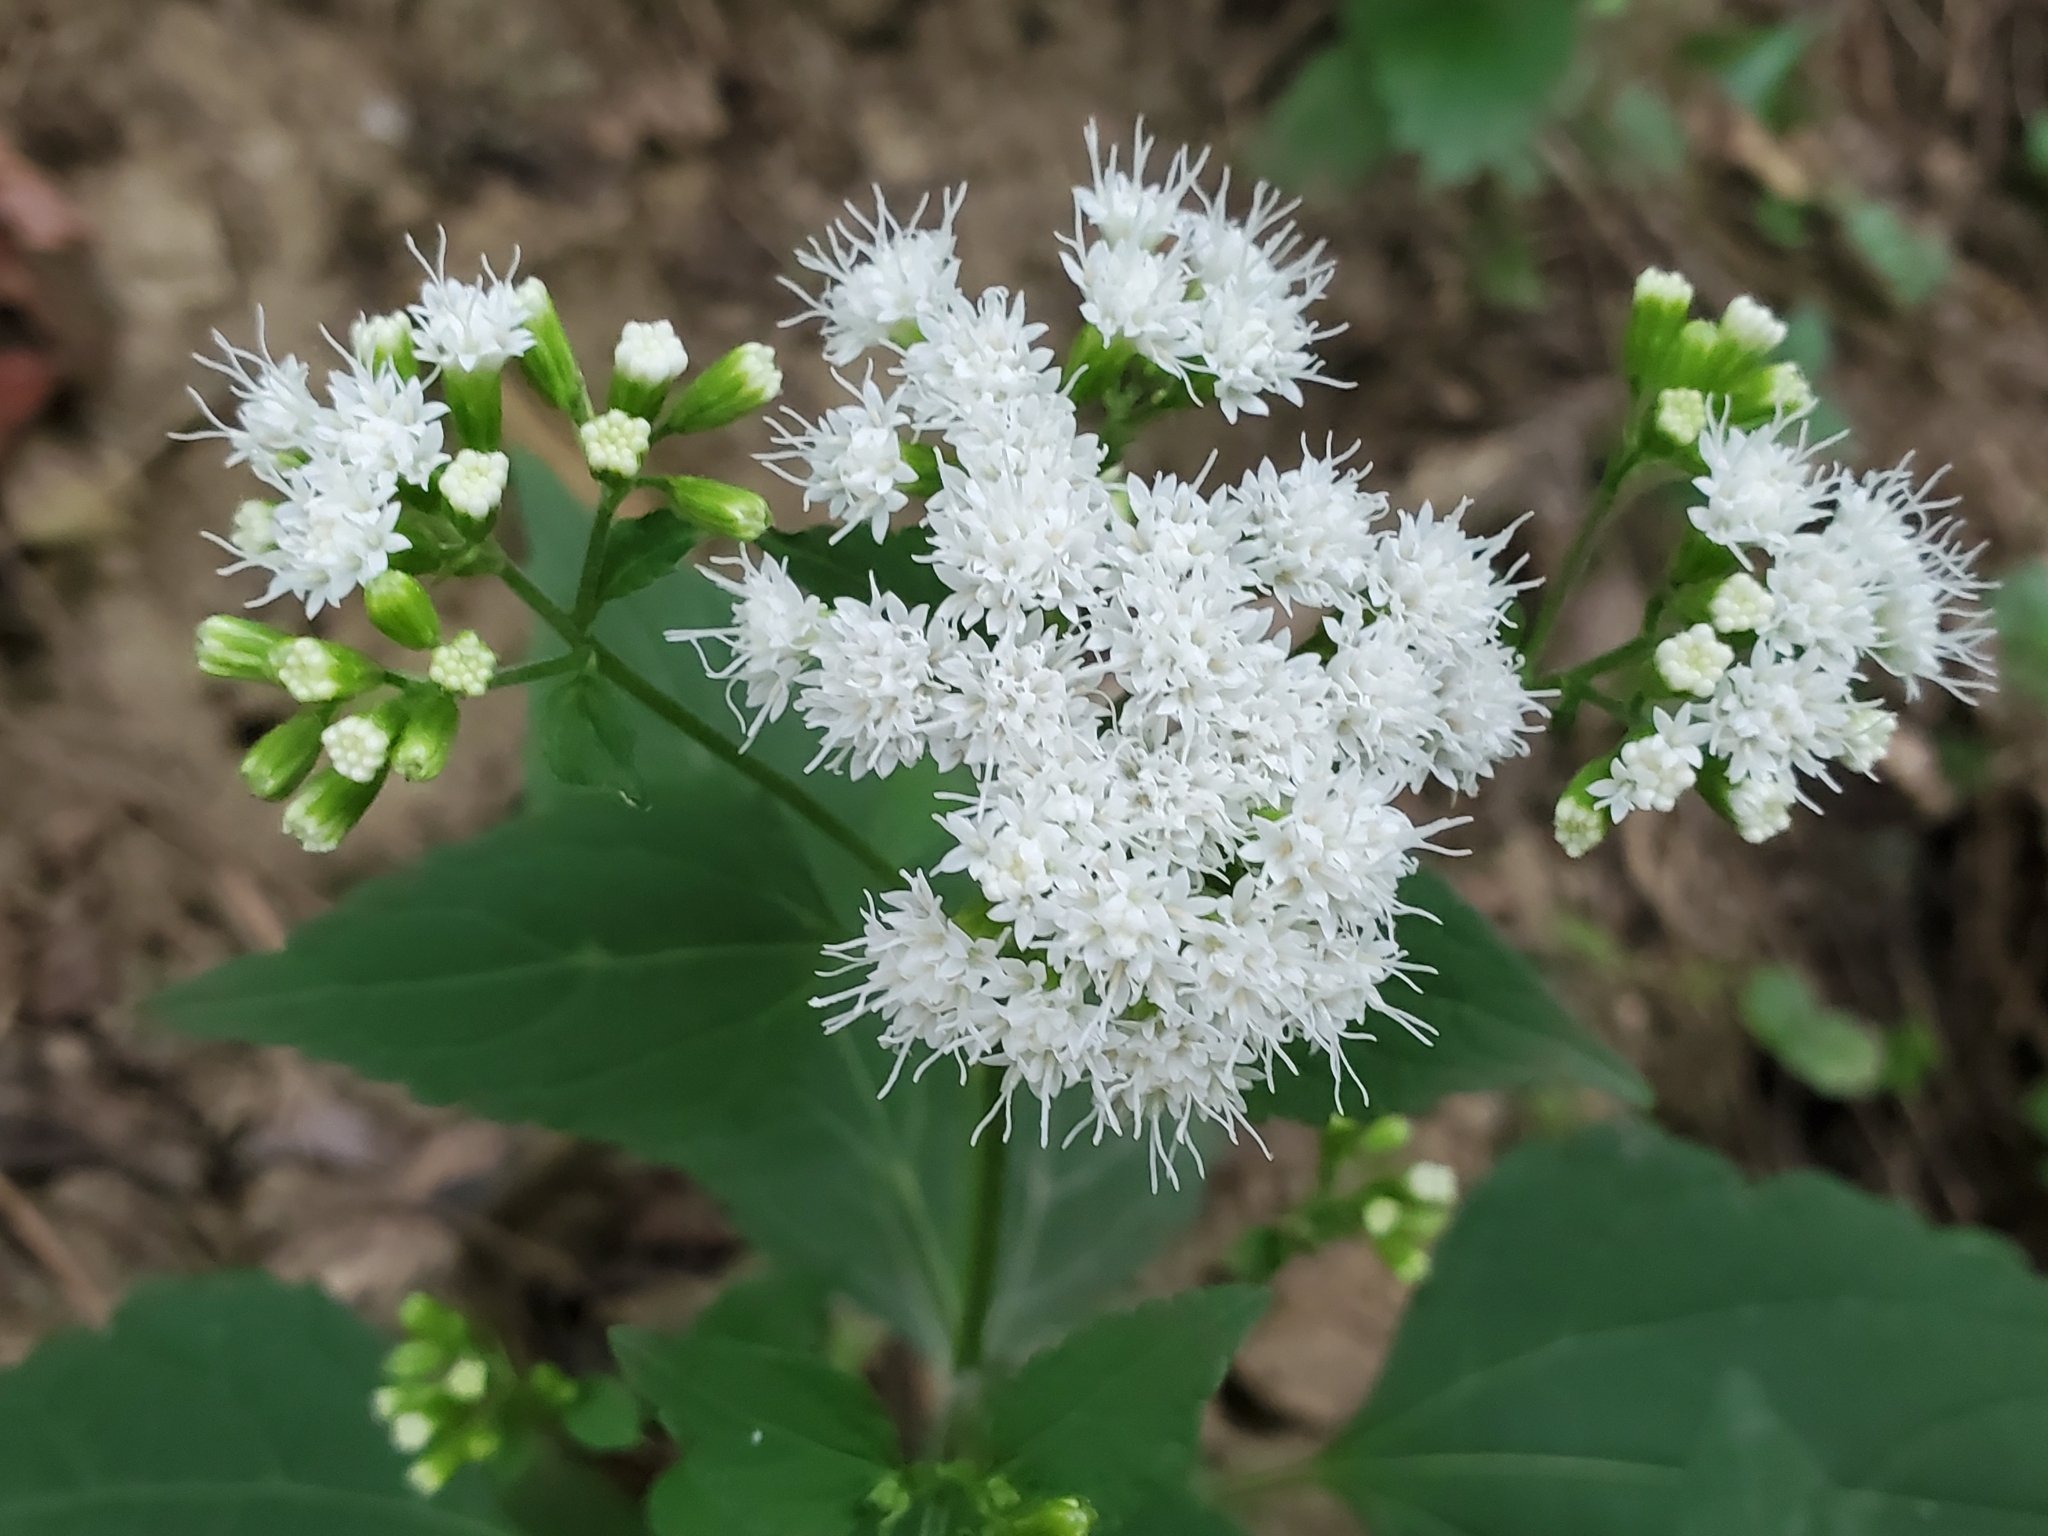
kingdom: Plantae
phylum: Tracheophyta
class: Magnoliopsida
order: Asterales
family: Asteraceae
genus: Ageratina
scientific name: Ageratina altissima
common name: White snakeroot
